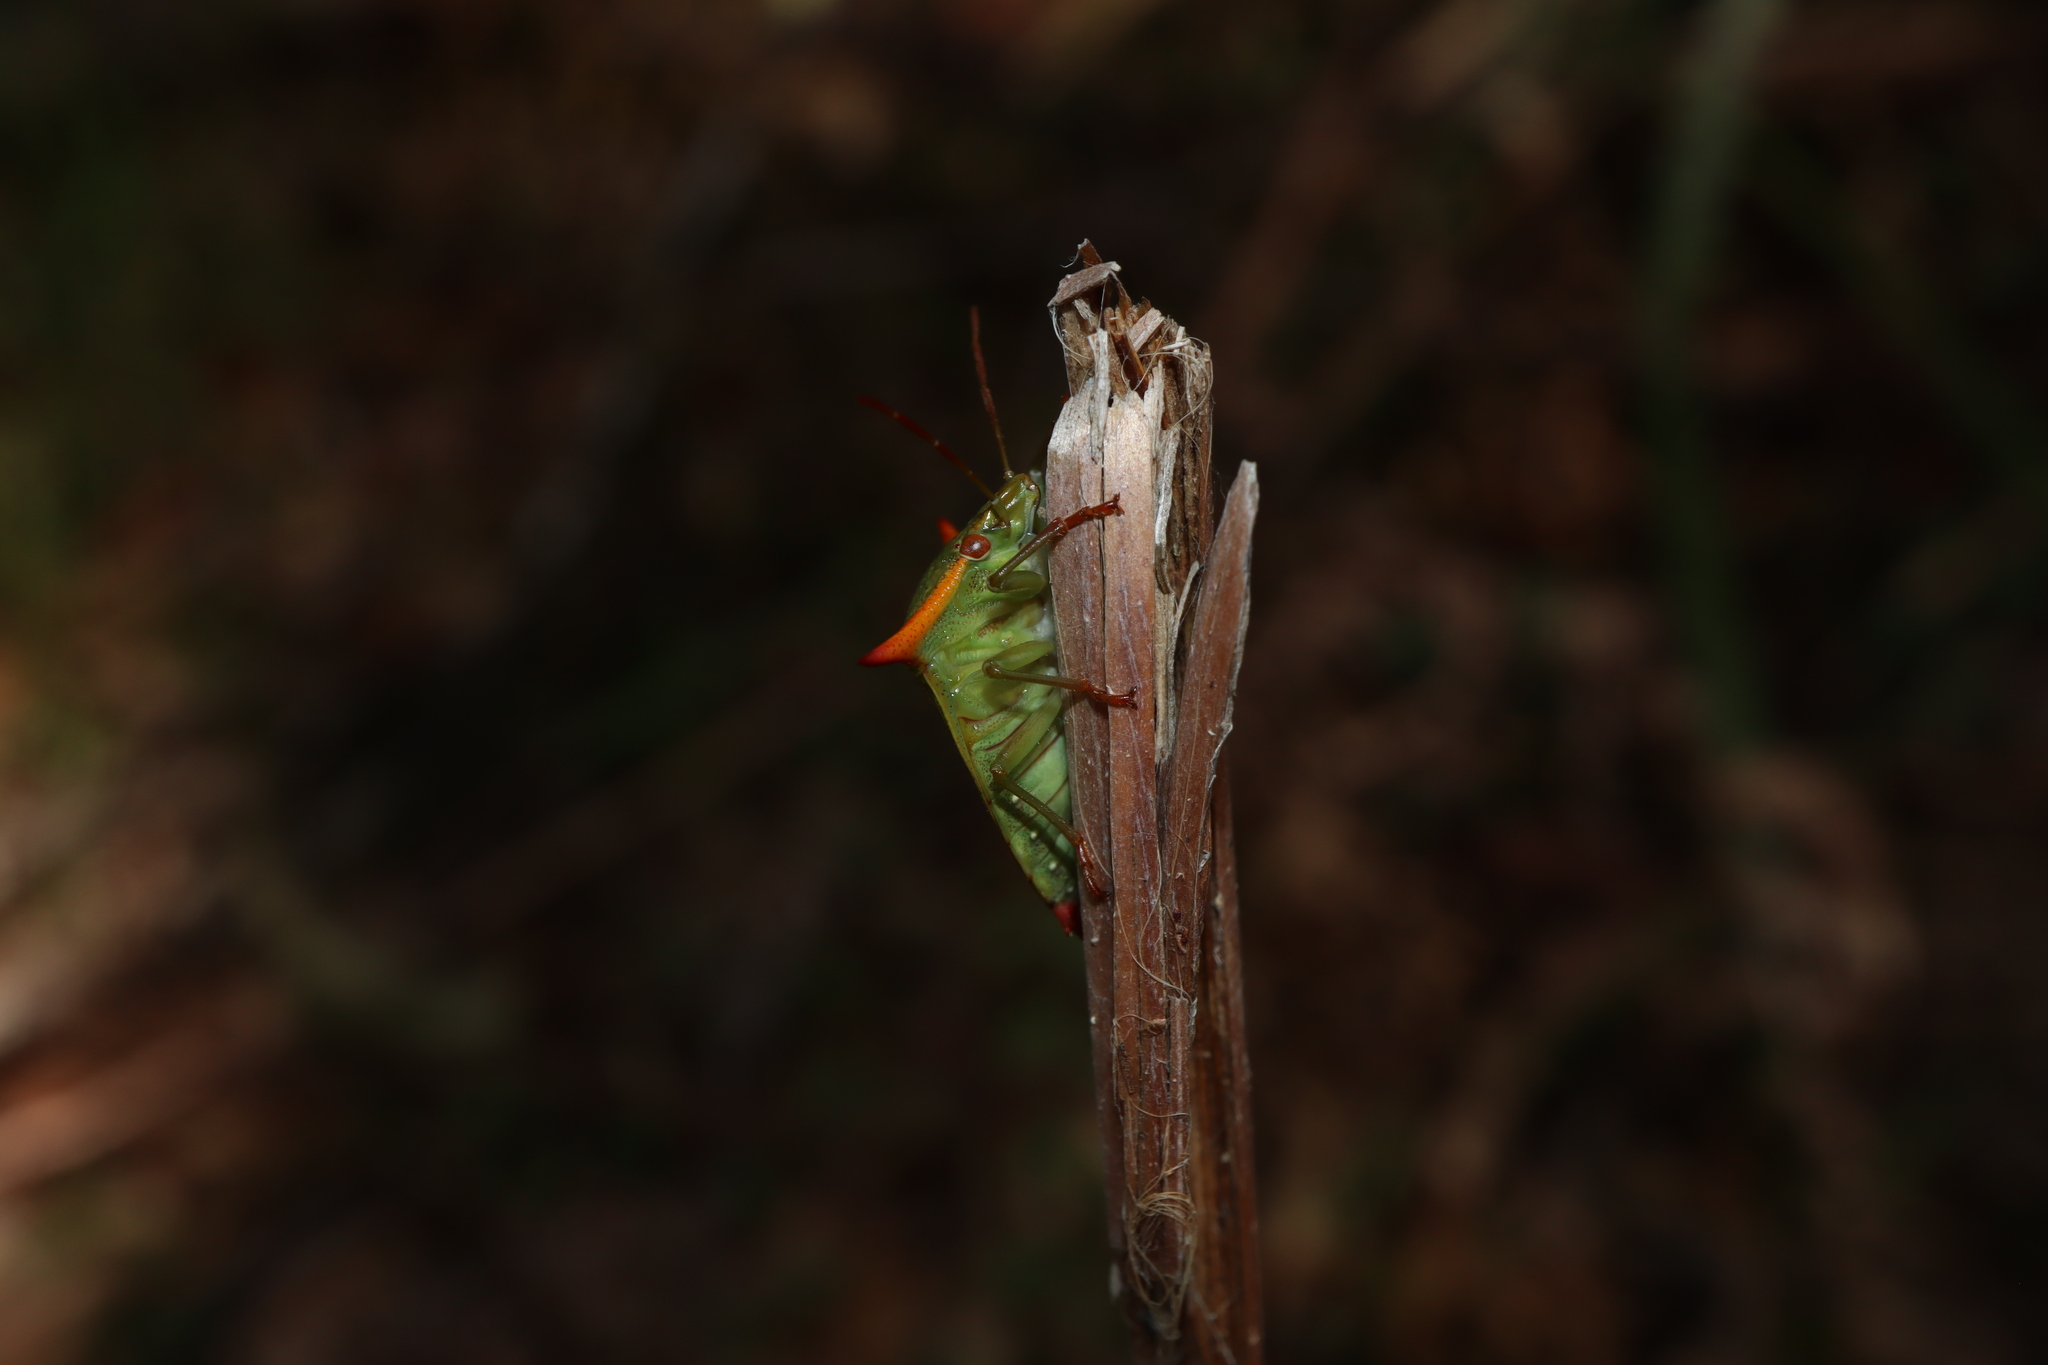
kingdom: Animalia
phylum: Arthropoda
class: Insecta
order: Hemiptera
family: Pentatomidae
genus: Avicenna
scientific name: Avicenna
